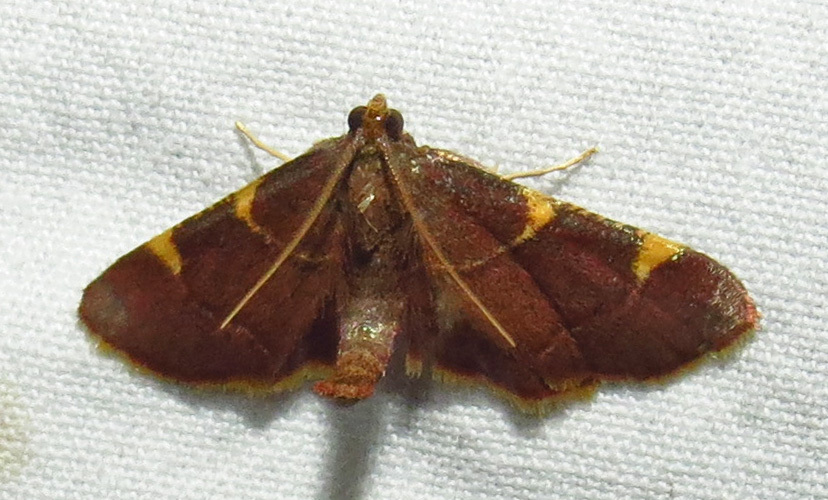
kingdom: Animalia
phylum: Arthropoda
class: Insecta
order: Lepidoptera
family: Pyralidae
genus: Hypsopygia
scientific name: Hypsopygia olinalis
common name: Yellow-fringed dolichomia moth
